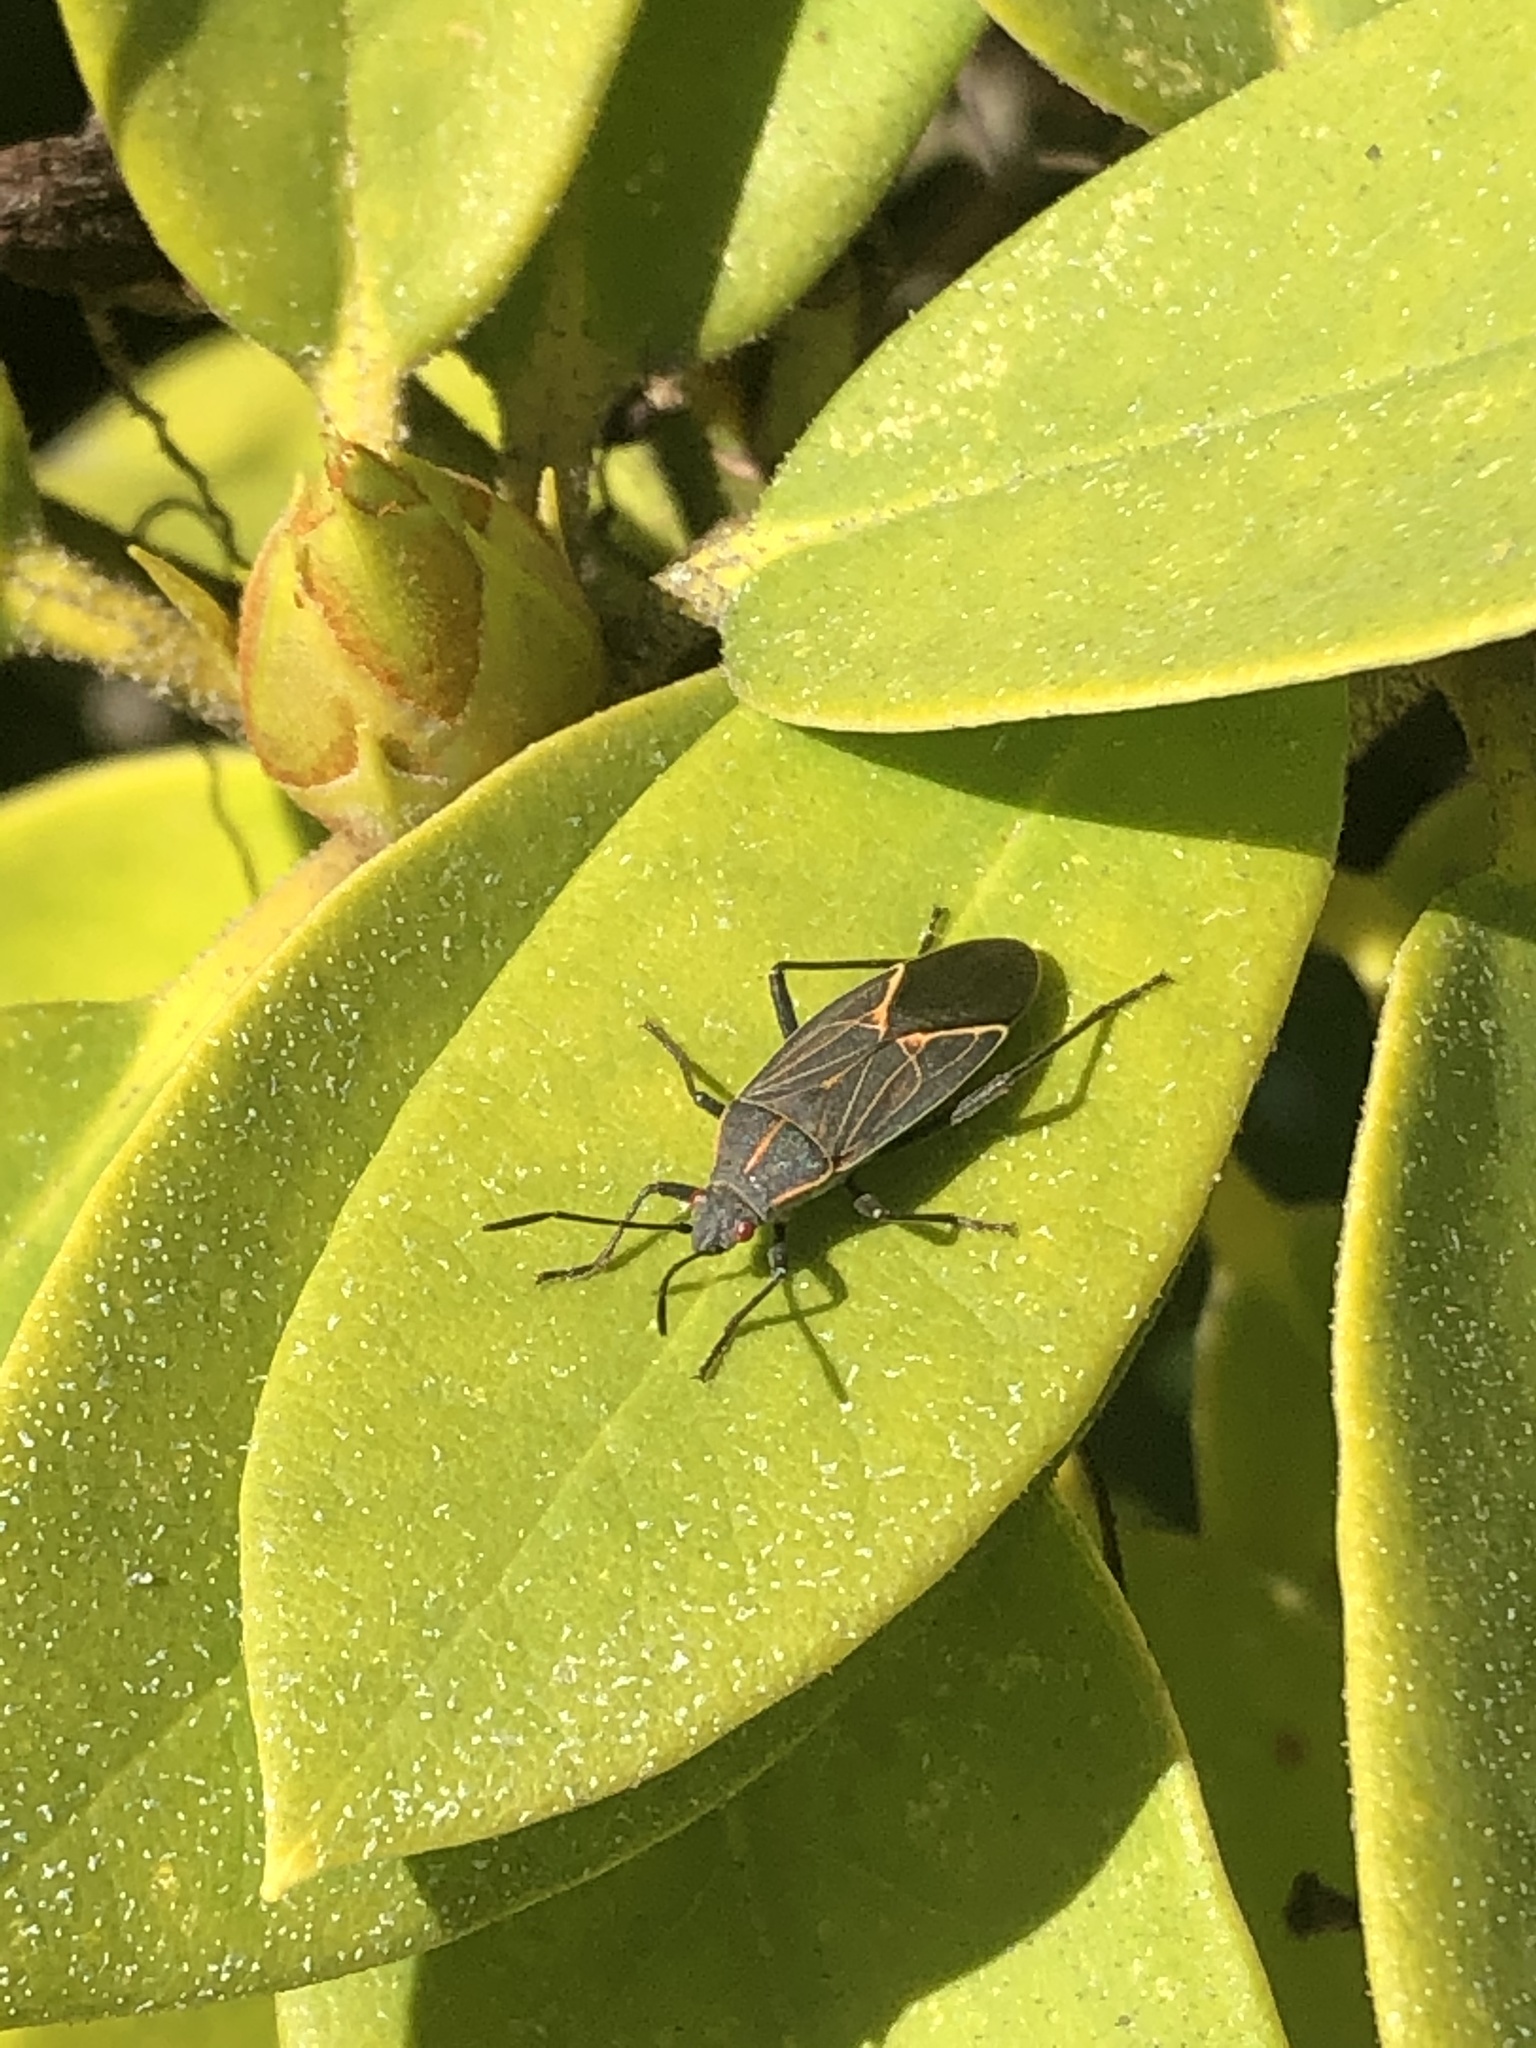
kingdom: Animalia
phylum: Arthropoda
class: Insecta
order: Hemiptera
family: Rhopalidae
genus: Boisea
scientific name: Boisea rubrolineata
